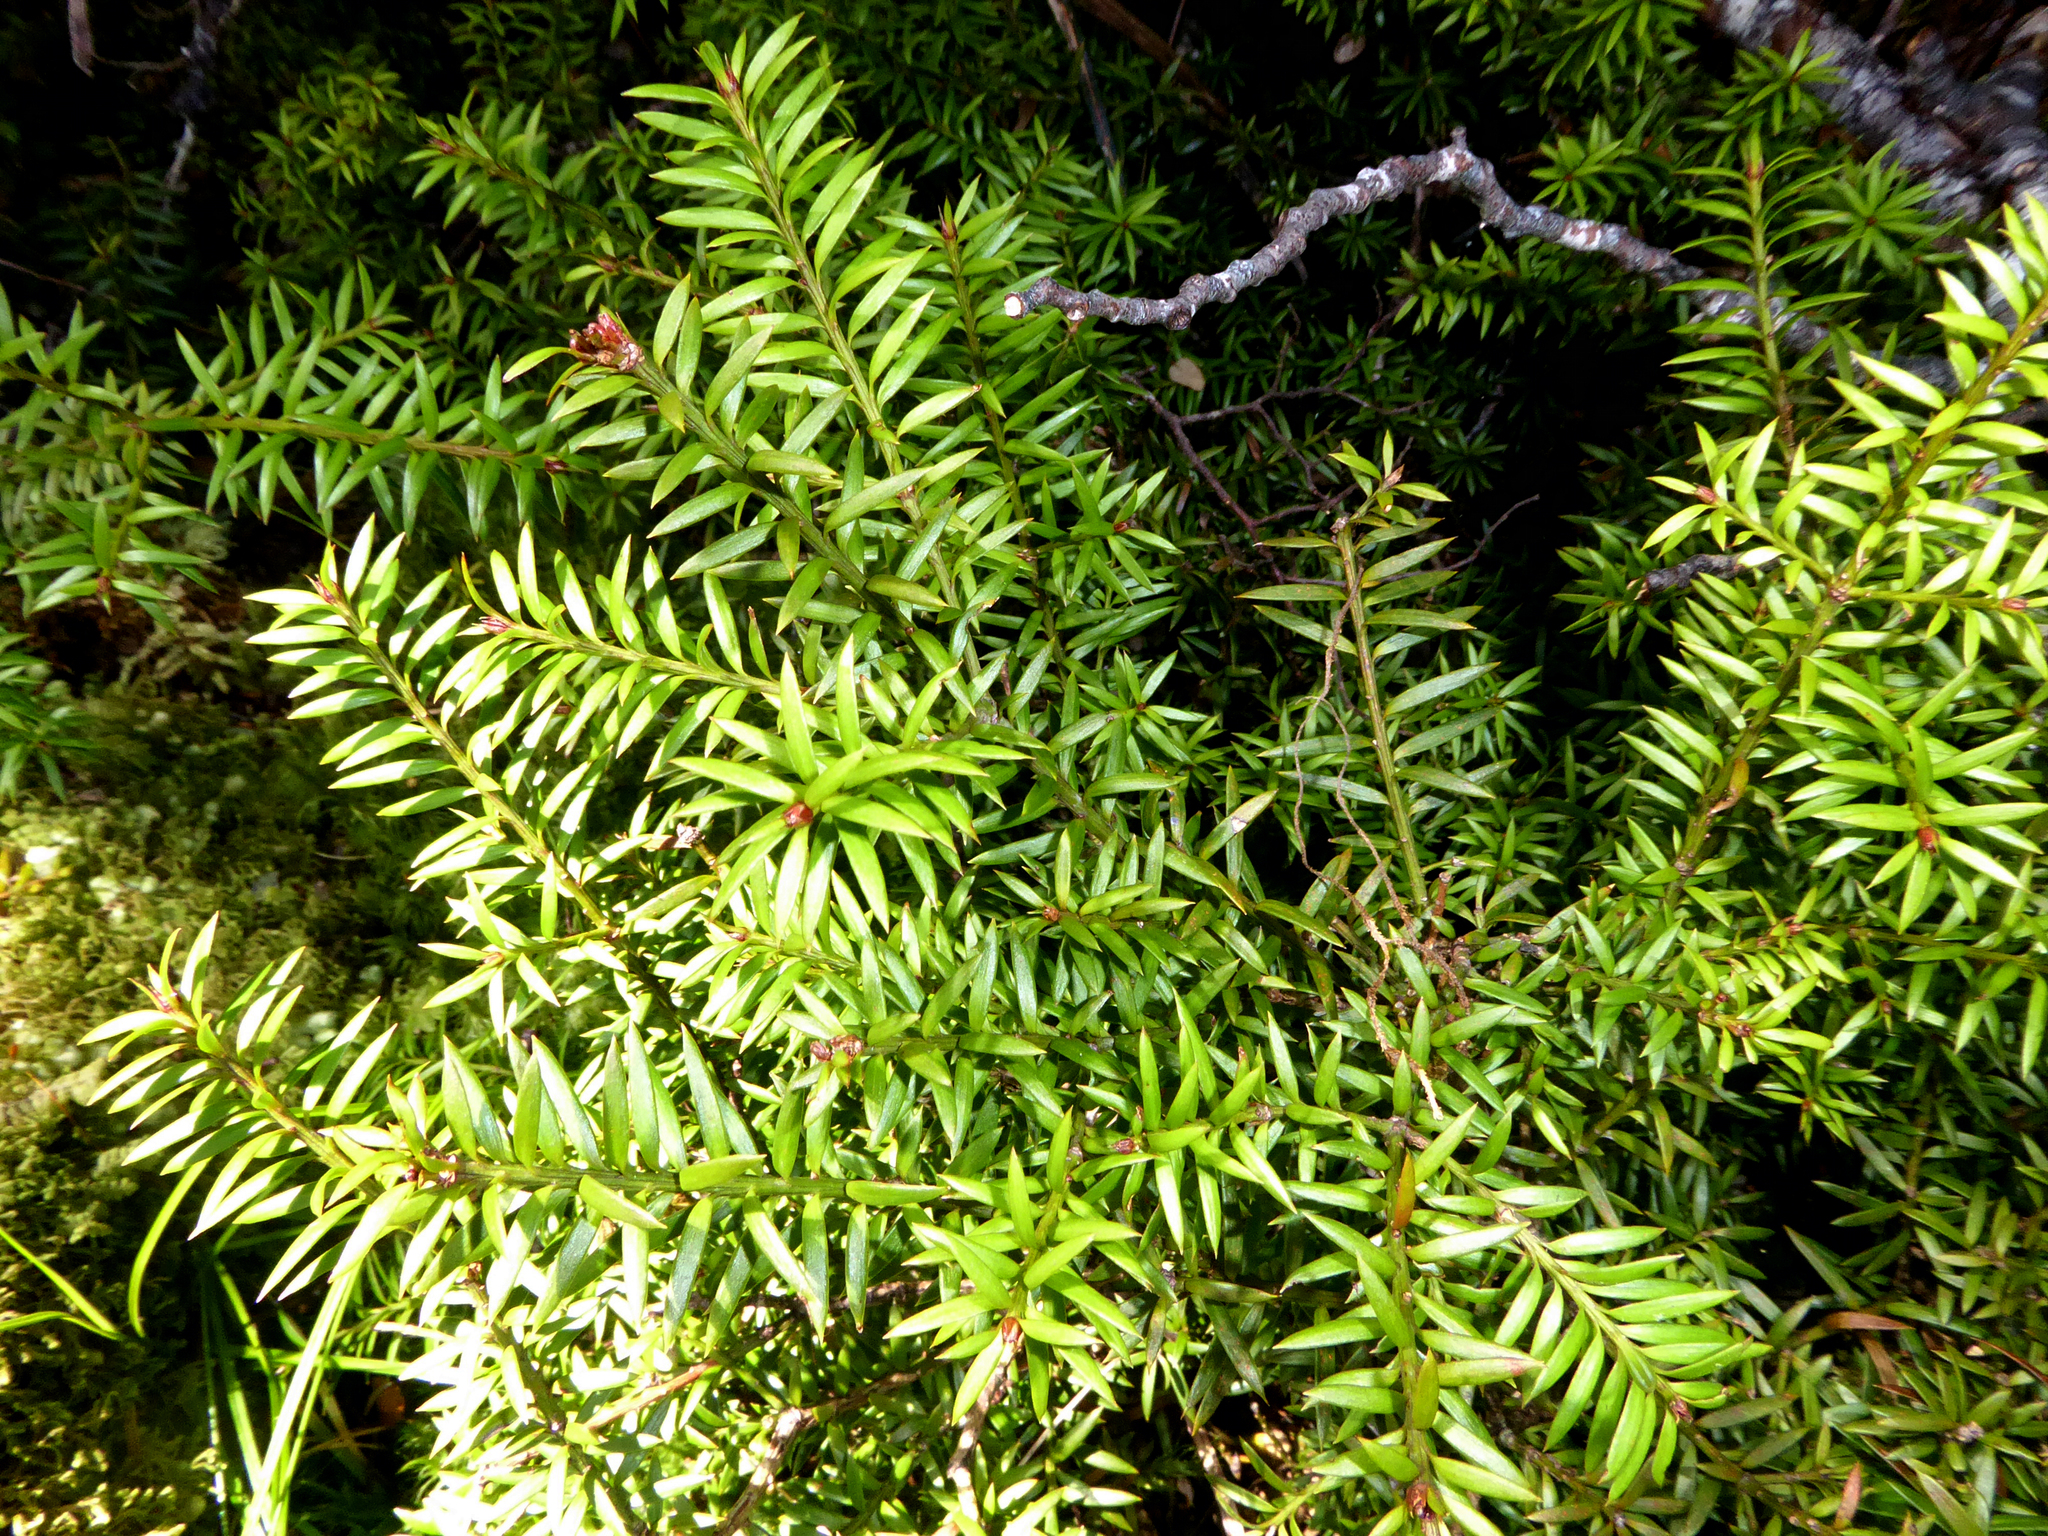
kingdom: Plantae
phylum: Tracheophyta
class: Pinopsida
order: Pinales
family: Podocarpaceae
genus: Podocarpus
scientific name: Podocarpus
